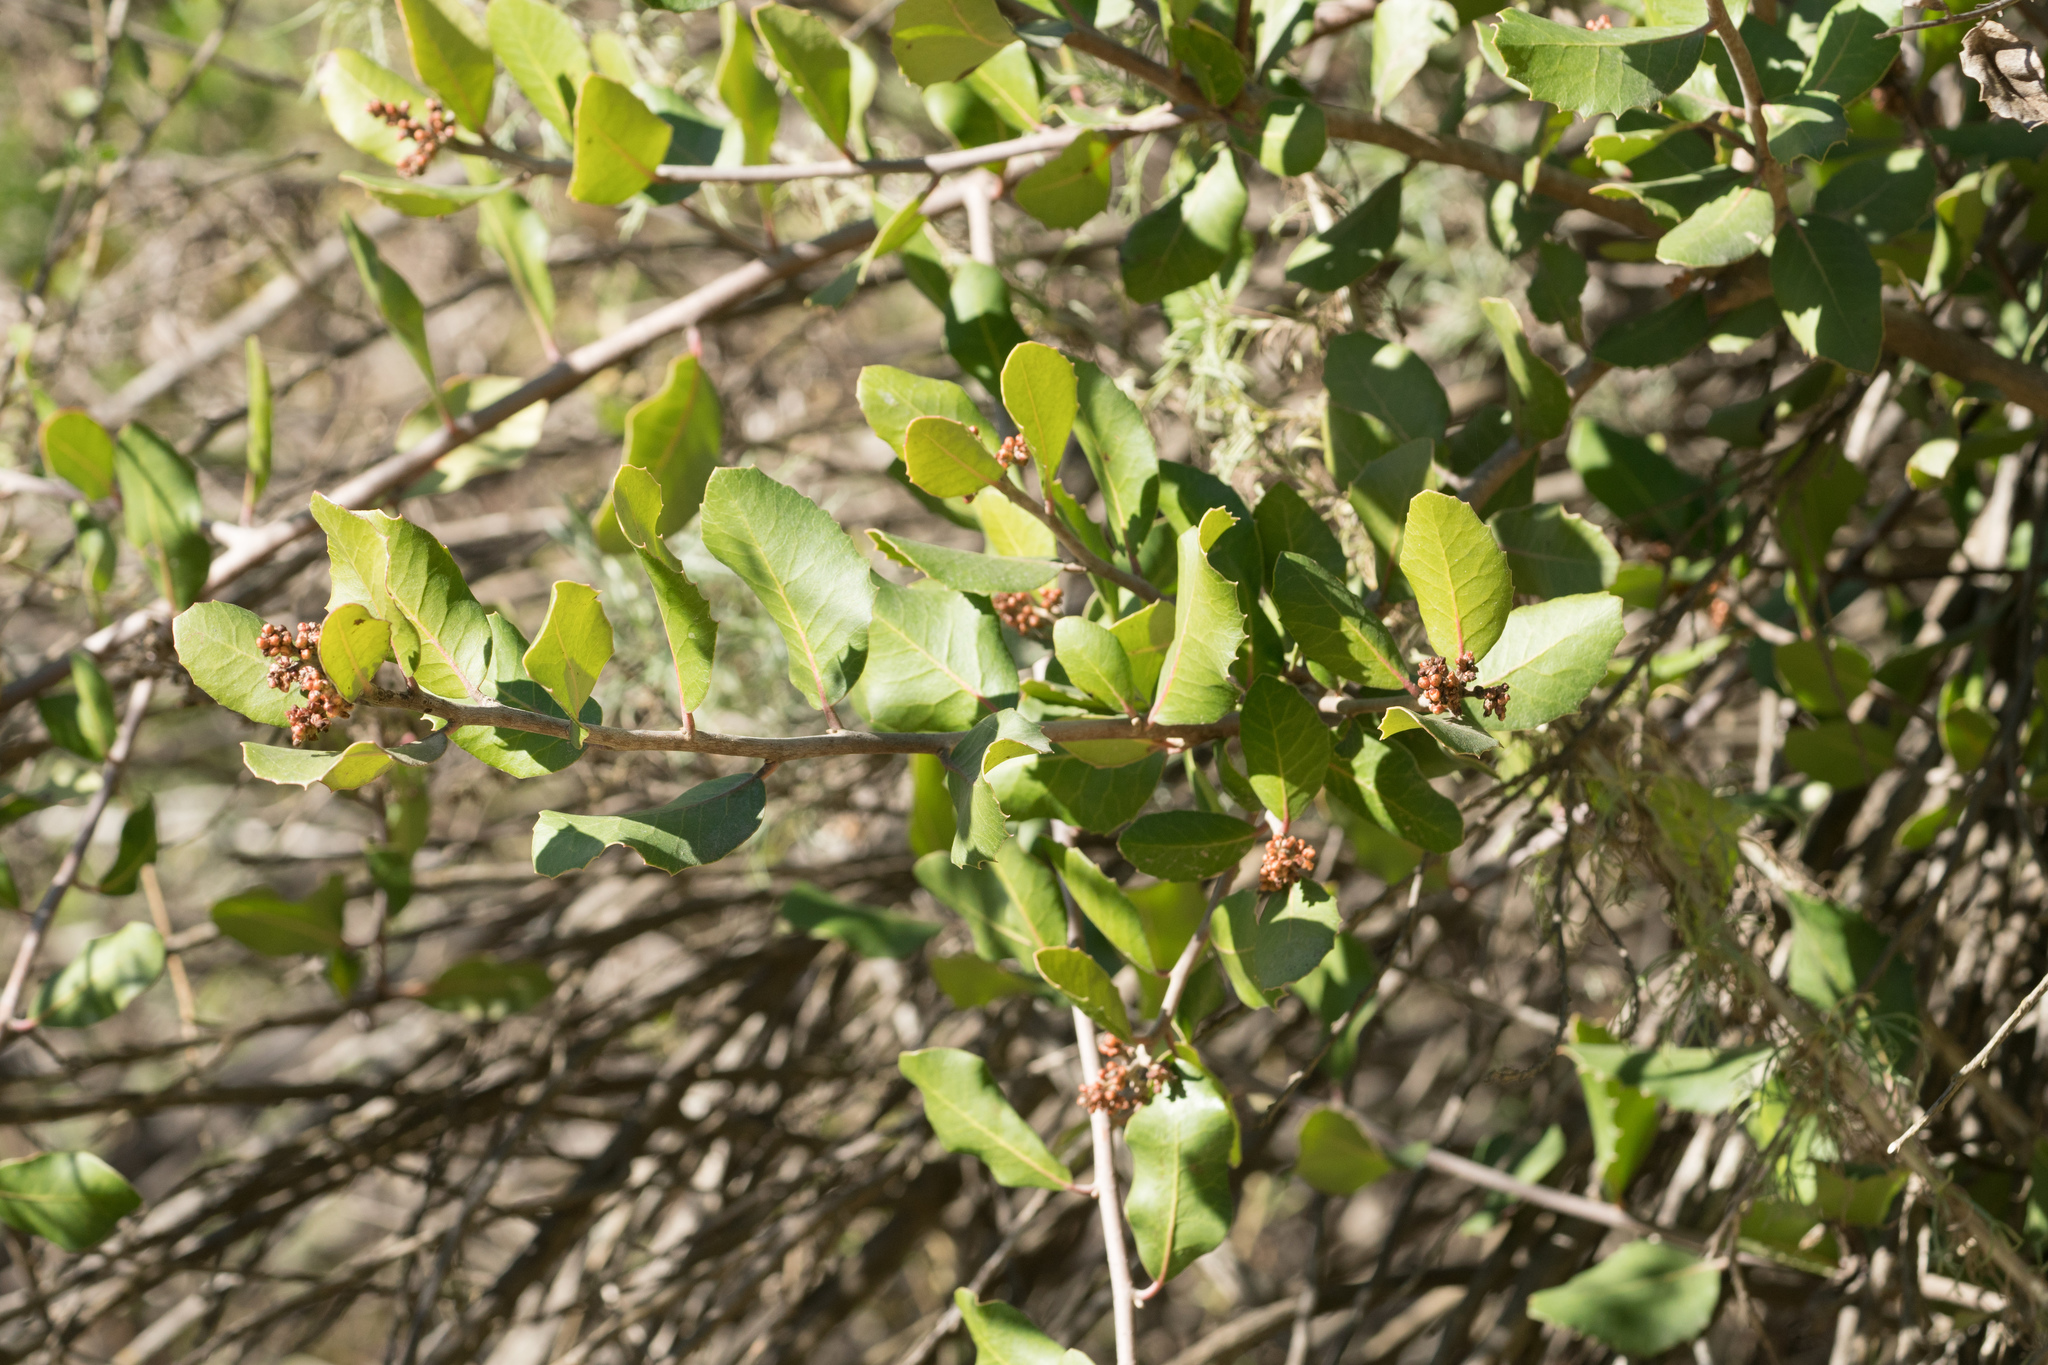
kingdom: Plantae
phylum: Tracheophyta
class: Magnoliopsida
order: Sapindales
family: Anacardiaceae
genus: Rhus
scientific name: Rhus integrifolia
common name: Lemonade sumac
